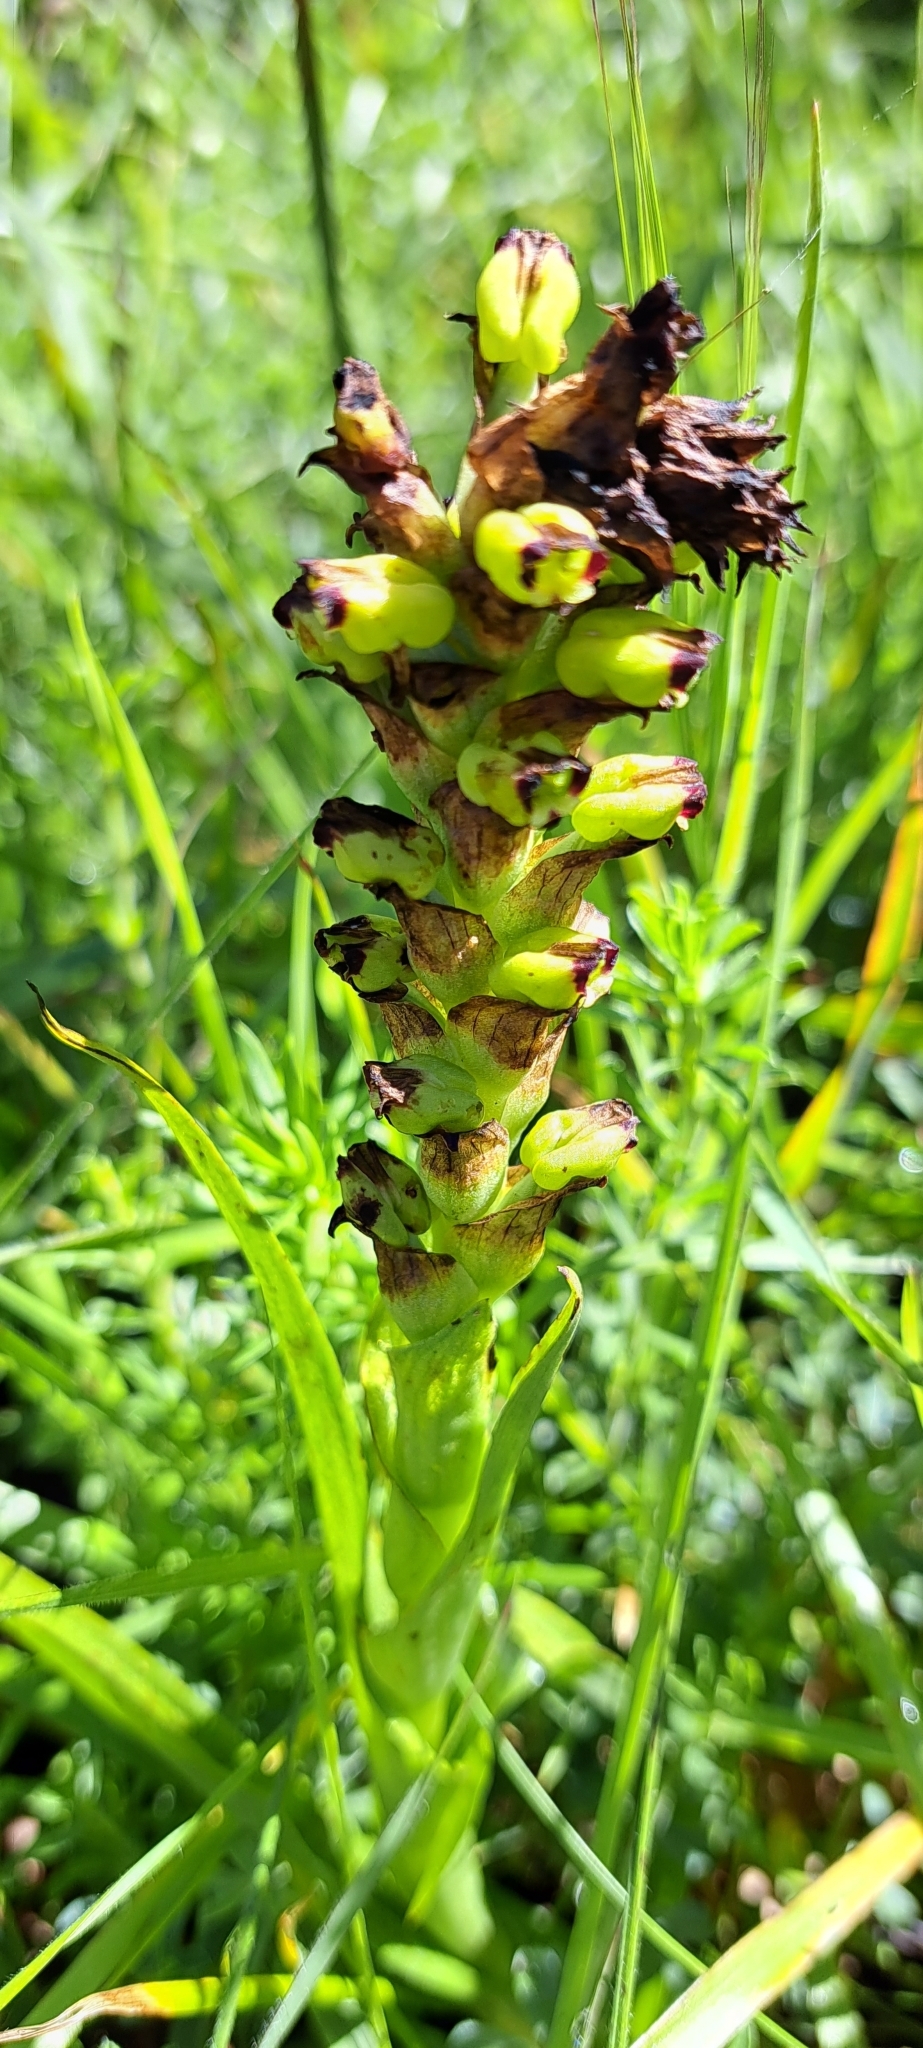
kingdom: Plantae
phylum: Tracheophyta
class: Liliopsida
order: Asparagales
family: Orchidaceae
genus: Corycium
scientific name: Corycium orobanchoides
